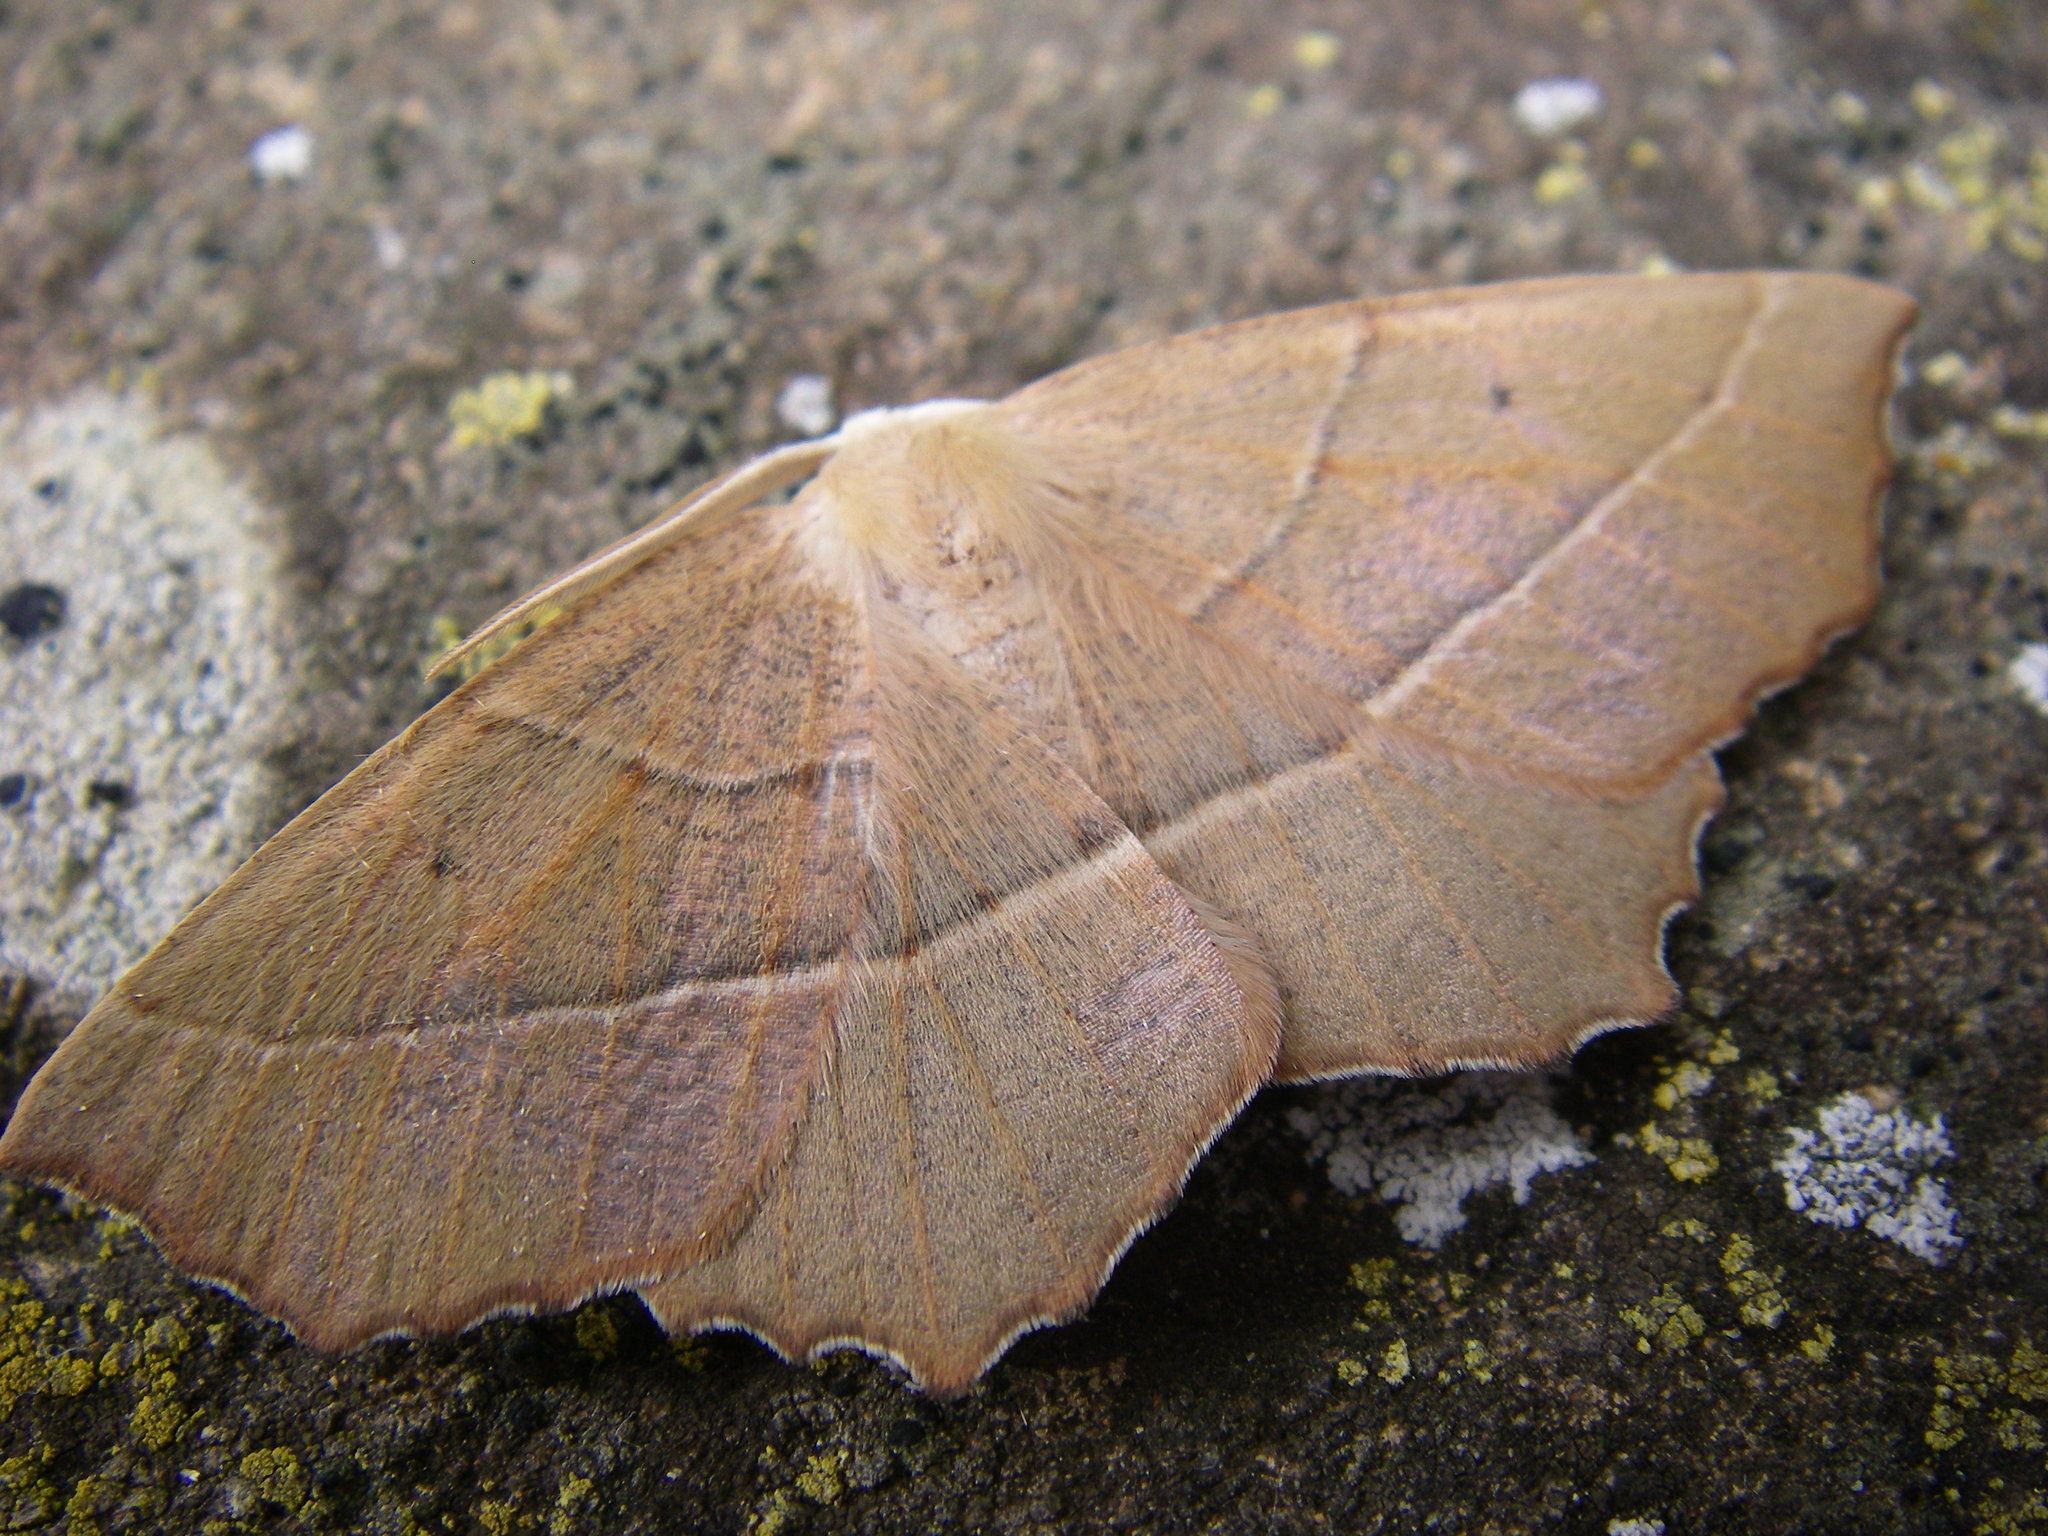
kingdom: Animalia
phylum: Arthropoda
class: Insecta
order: Lepidoptera
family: Geometridae
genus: Gerinia
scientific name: Gerinia honoraria
